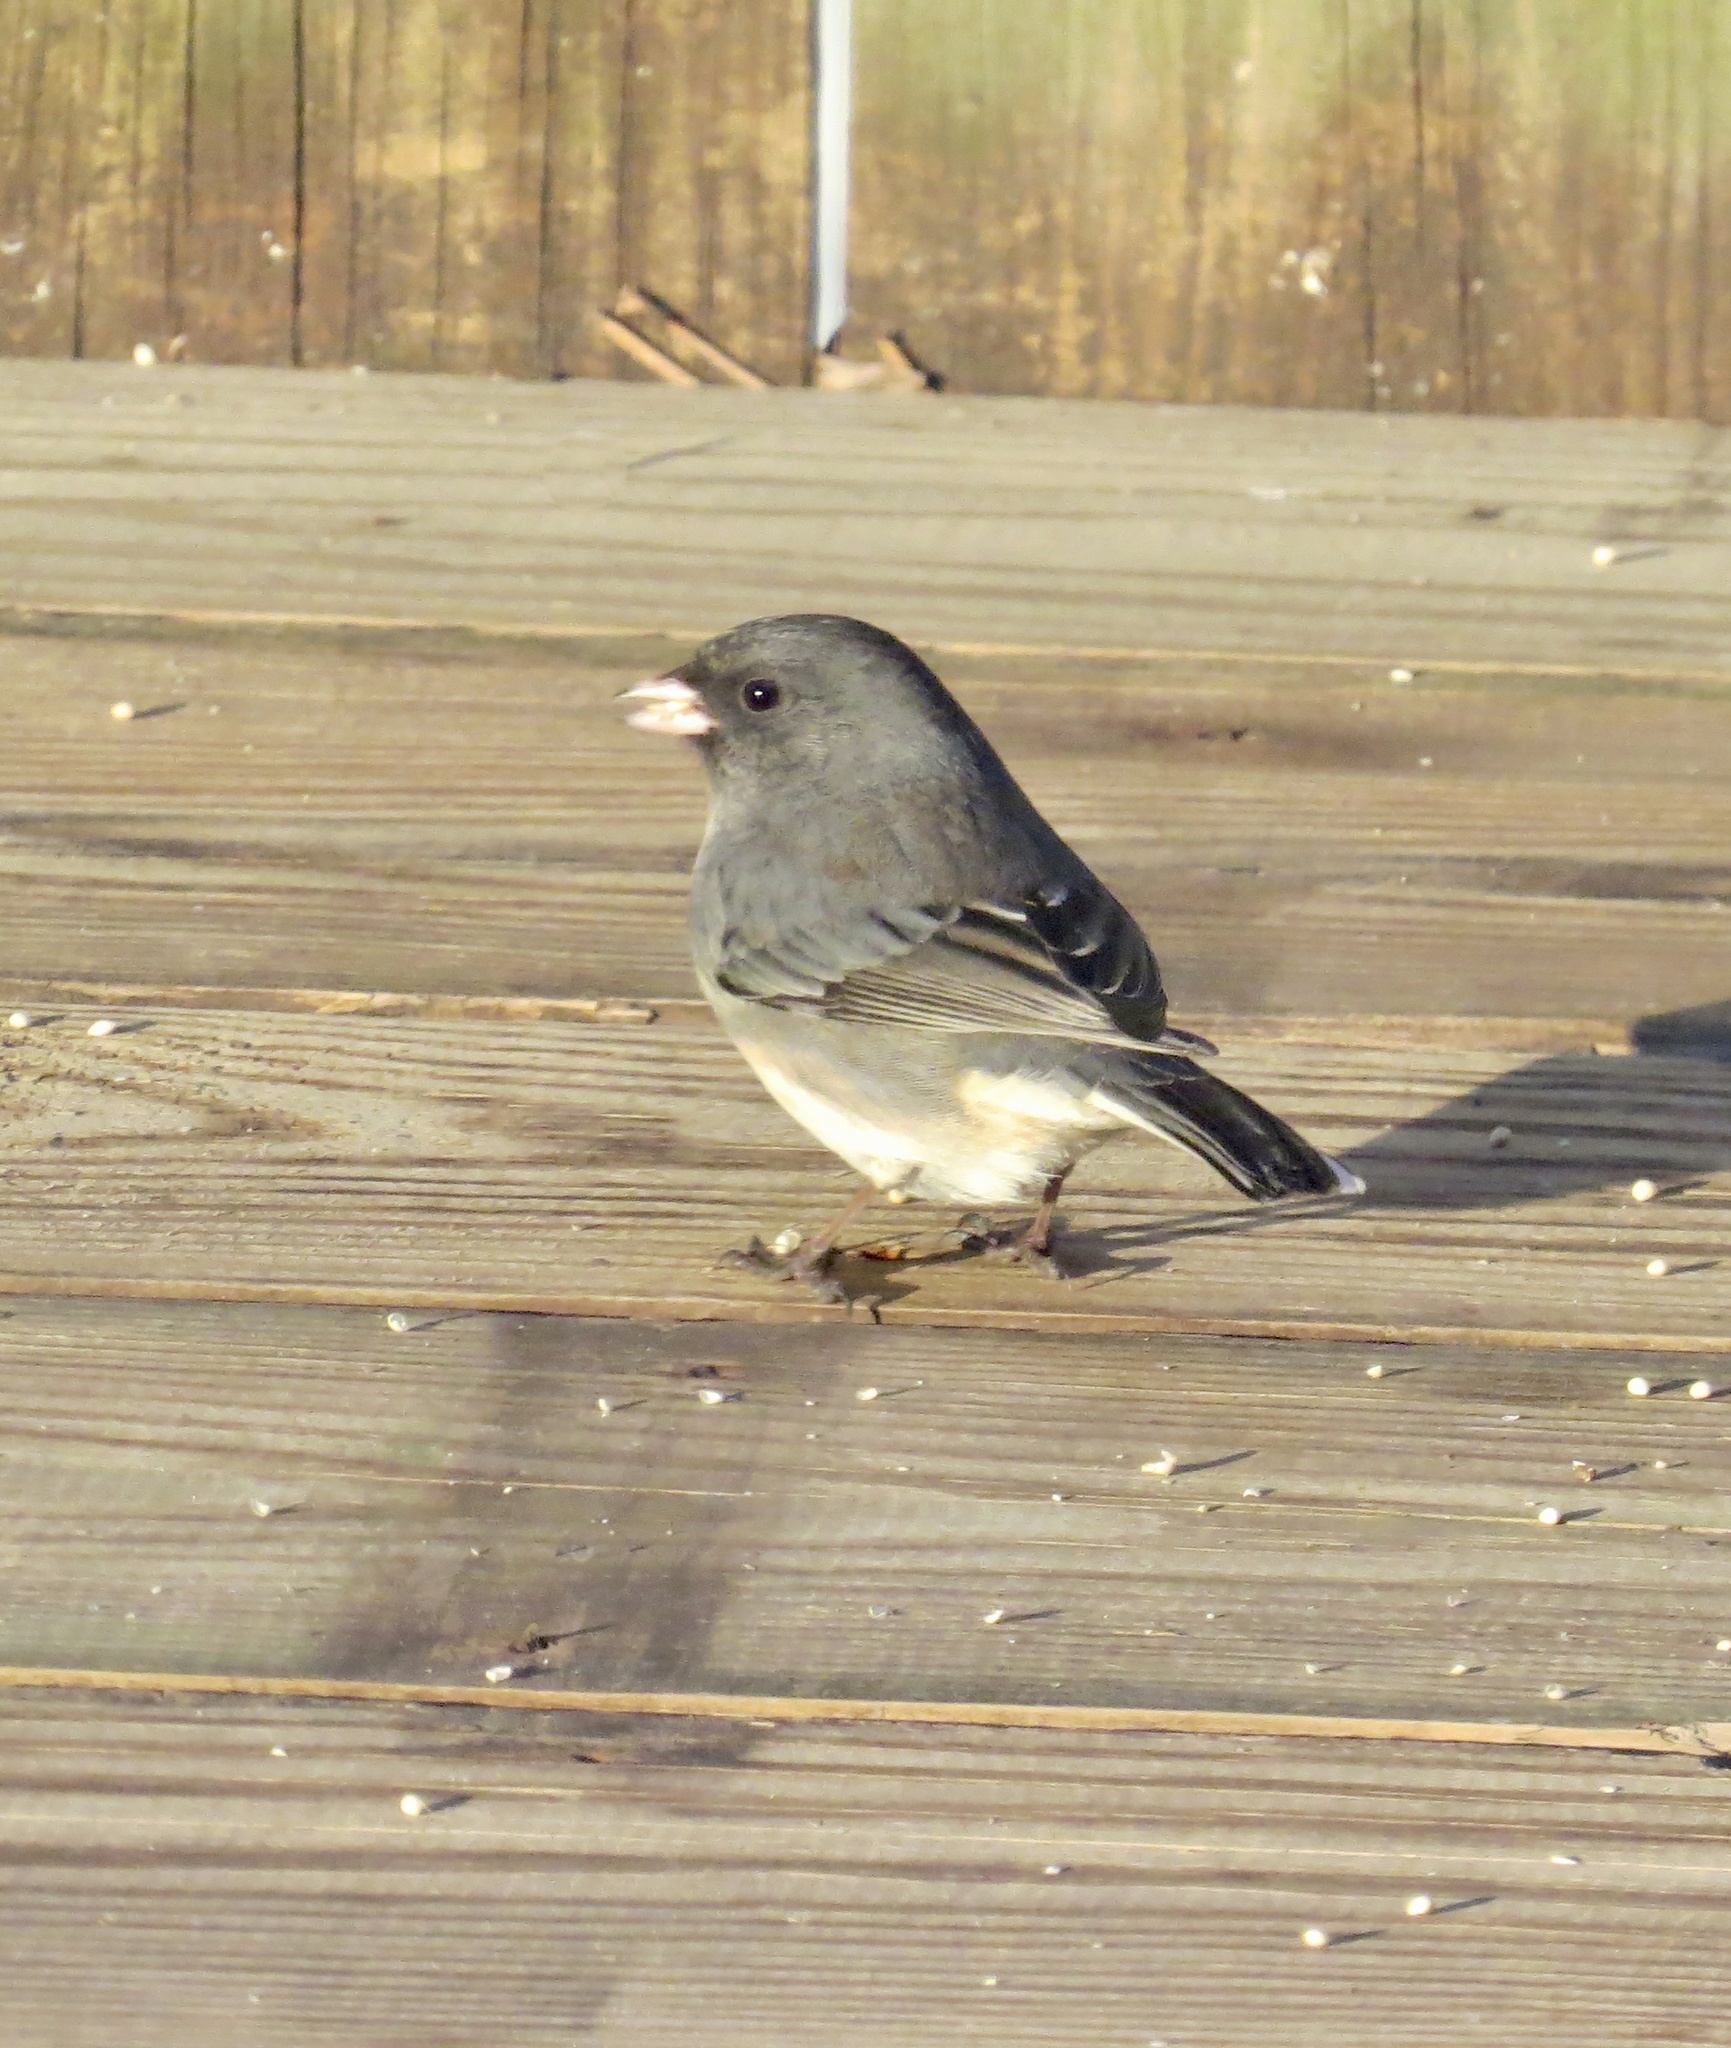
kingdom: Animalia
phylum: Chordata
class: Aves
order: Passeriformes
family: Passerellidae
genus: Junco
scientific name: Junco hyemalis
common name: Dark-eyed junco
